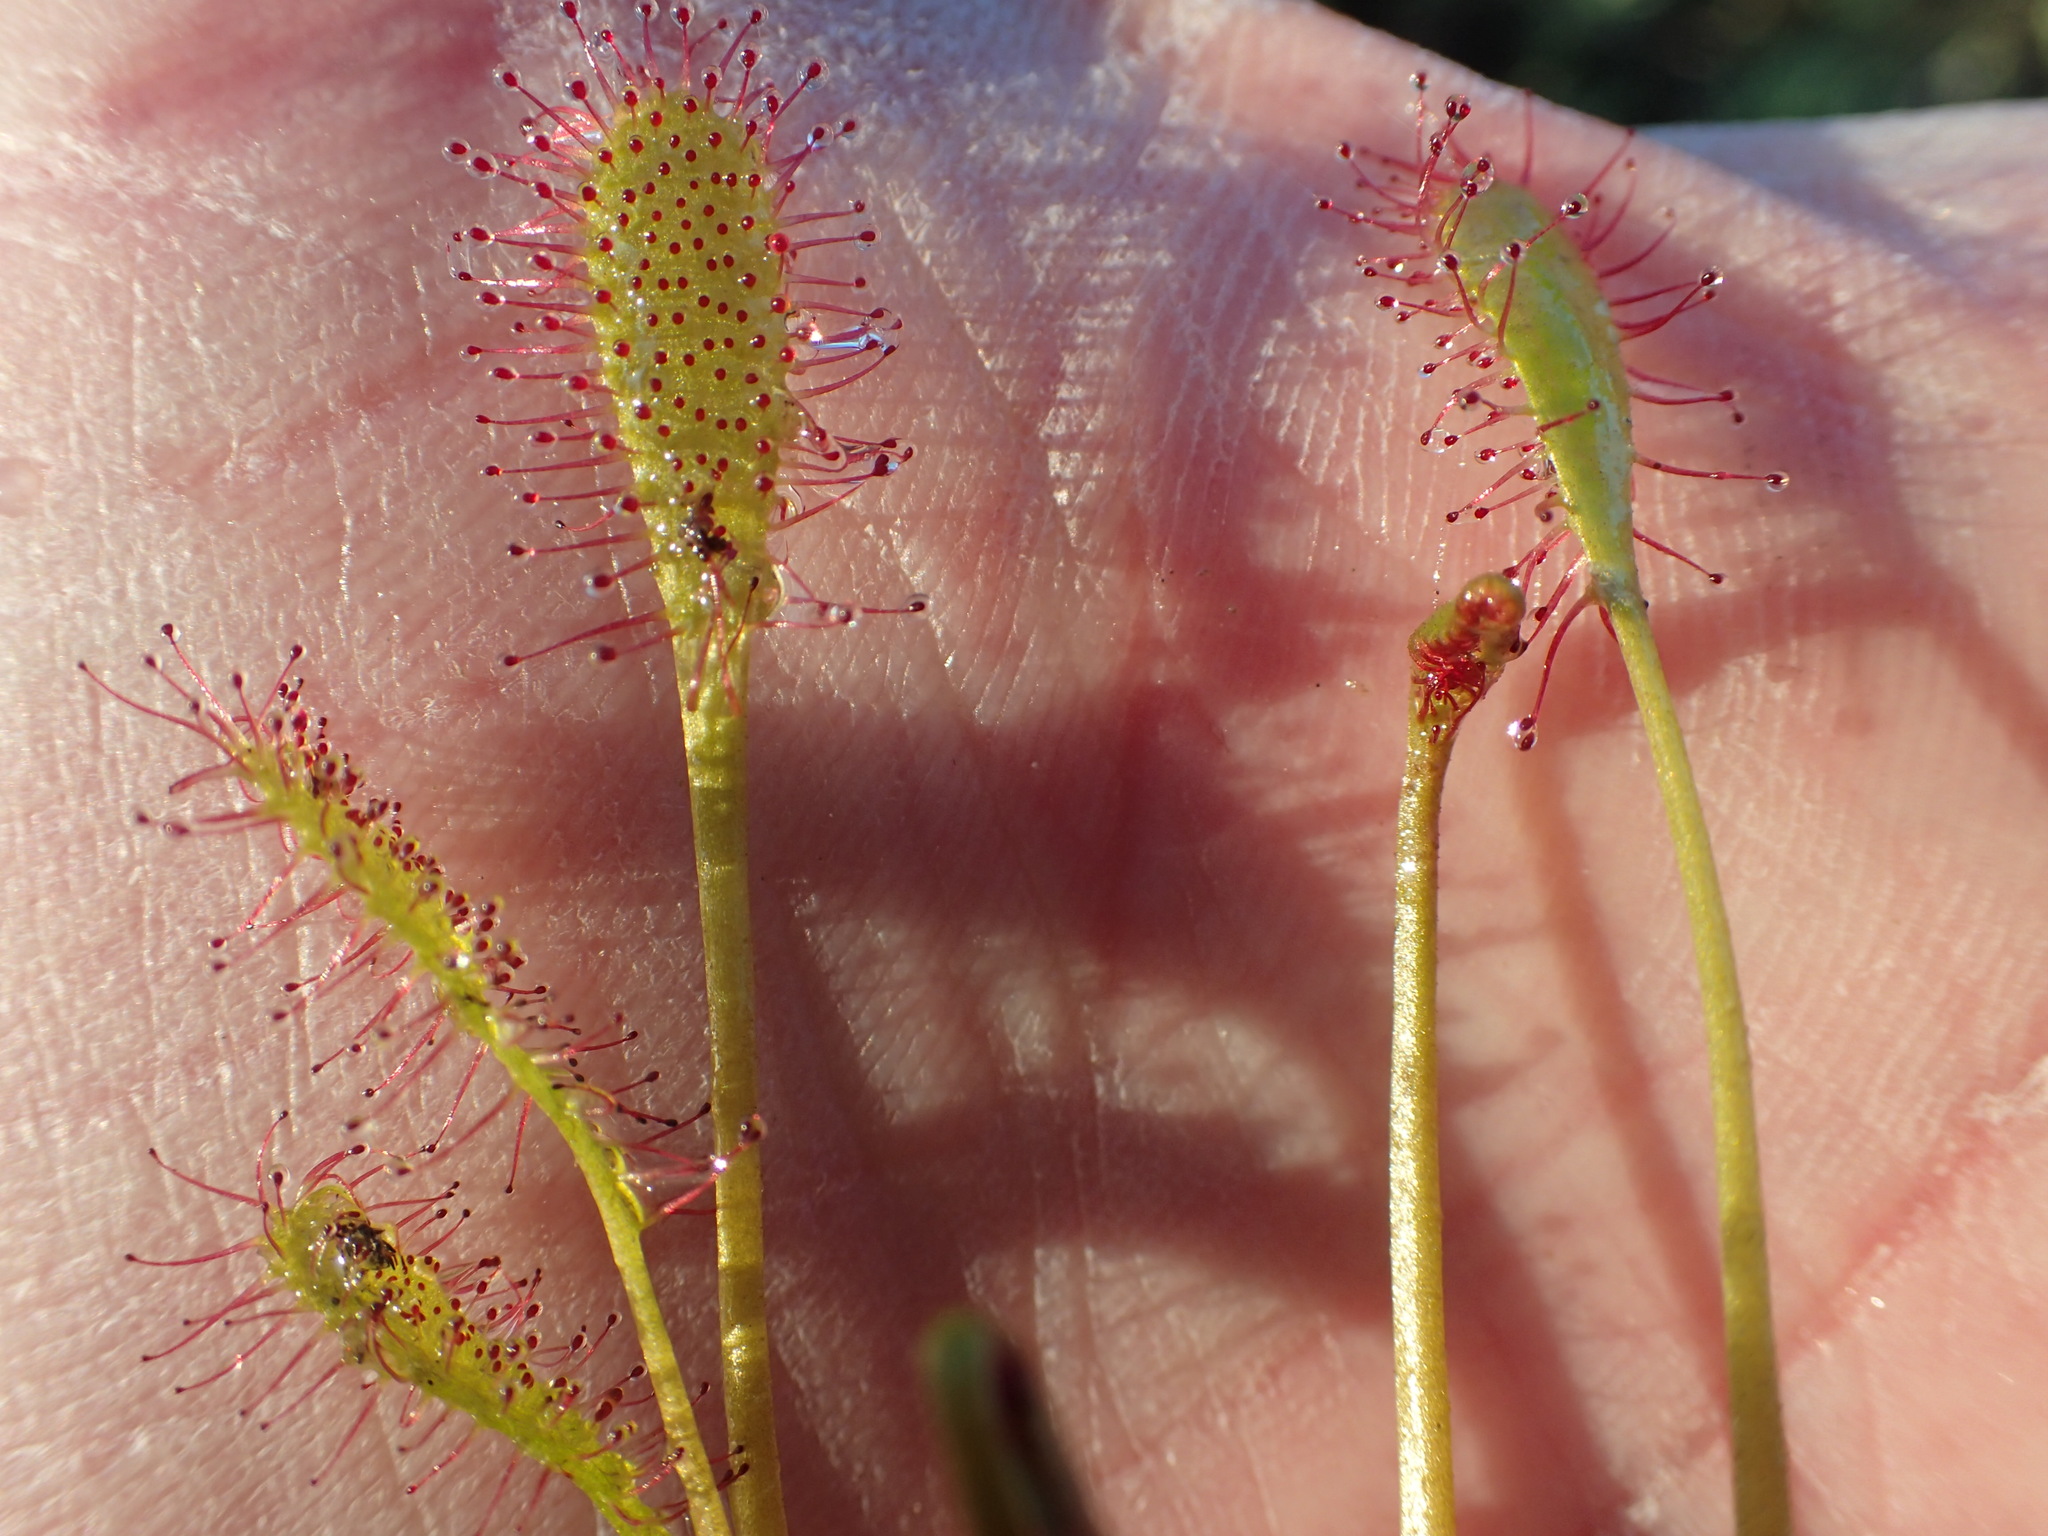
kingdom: Plantae
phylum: Tracheophyta
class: Magnoliopsida
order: Caryophyllales
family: Droseraceae
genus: Drosera
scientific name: Drosera anglica
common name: Great sundew
